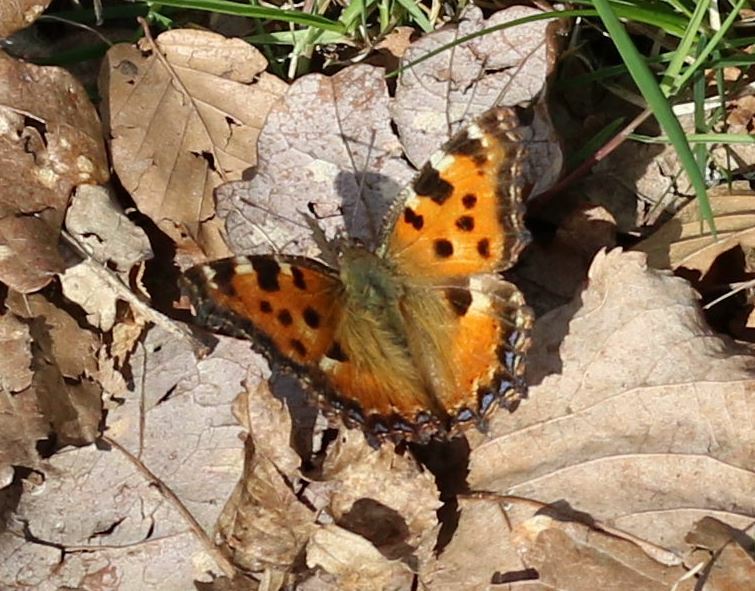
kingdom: Animalia
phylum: Arthropoda
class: Insecta
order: Lepidoptera
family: Nymphalidae
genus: Nymphalis
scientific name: Nymphalis polychloros
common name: Large tortoiseshell
